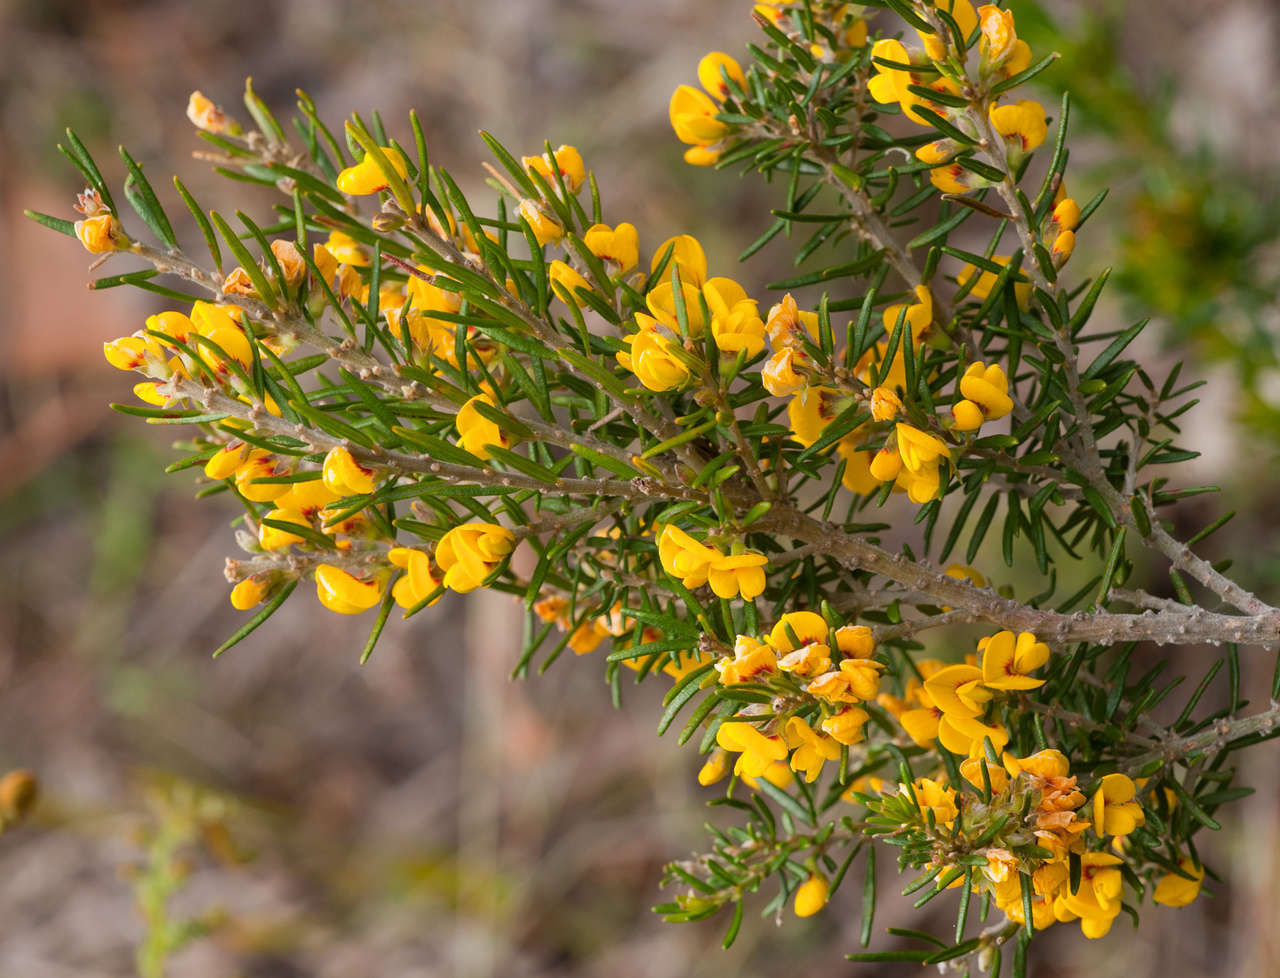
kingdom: Plantae
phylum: Tracheophyta
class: Magnoliopsida
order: Fabales
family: Fabaceae
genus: Aotus
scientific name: Aotus ericoides
